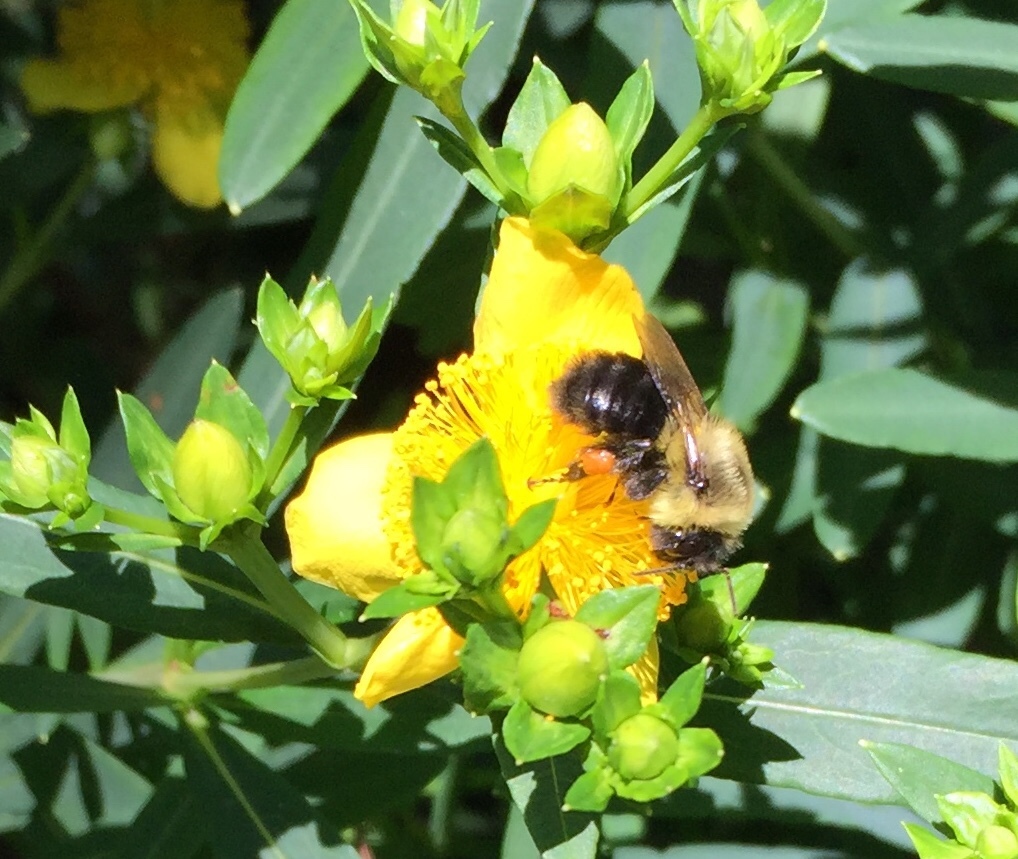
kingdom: Animalia
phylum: Arthropoda
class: Insecta
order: Hymenoptera
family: Apidae
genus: Bombus
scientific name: Bombus impatiens
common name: Common eastern bumble bee
